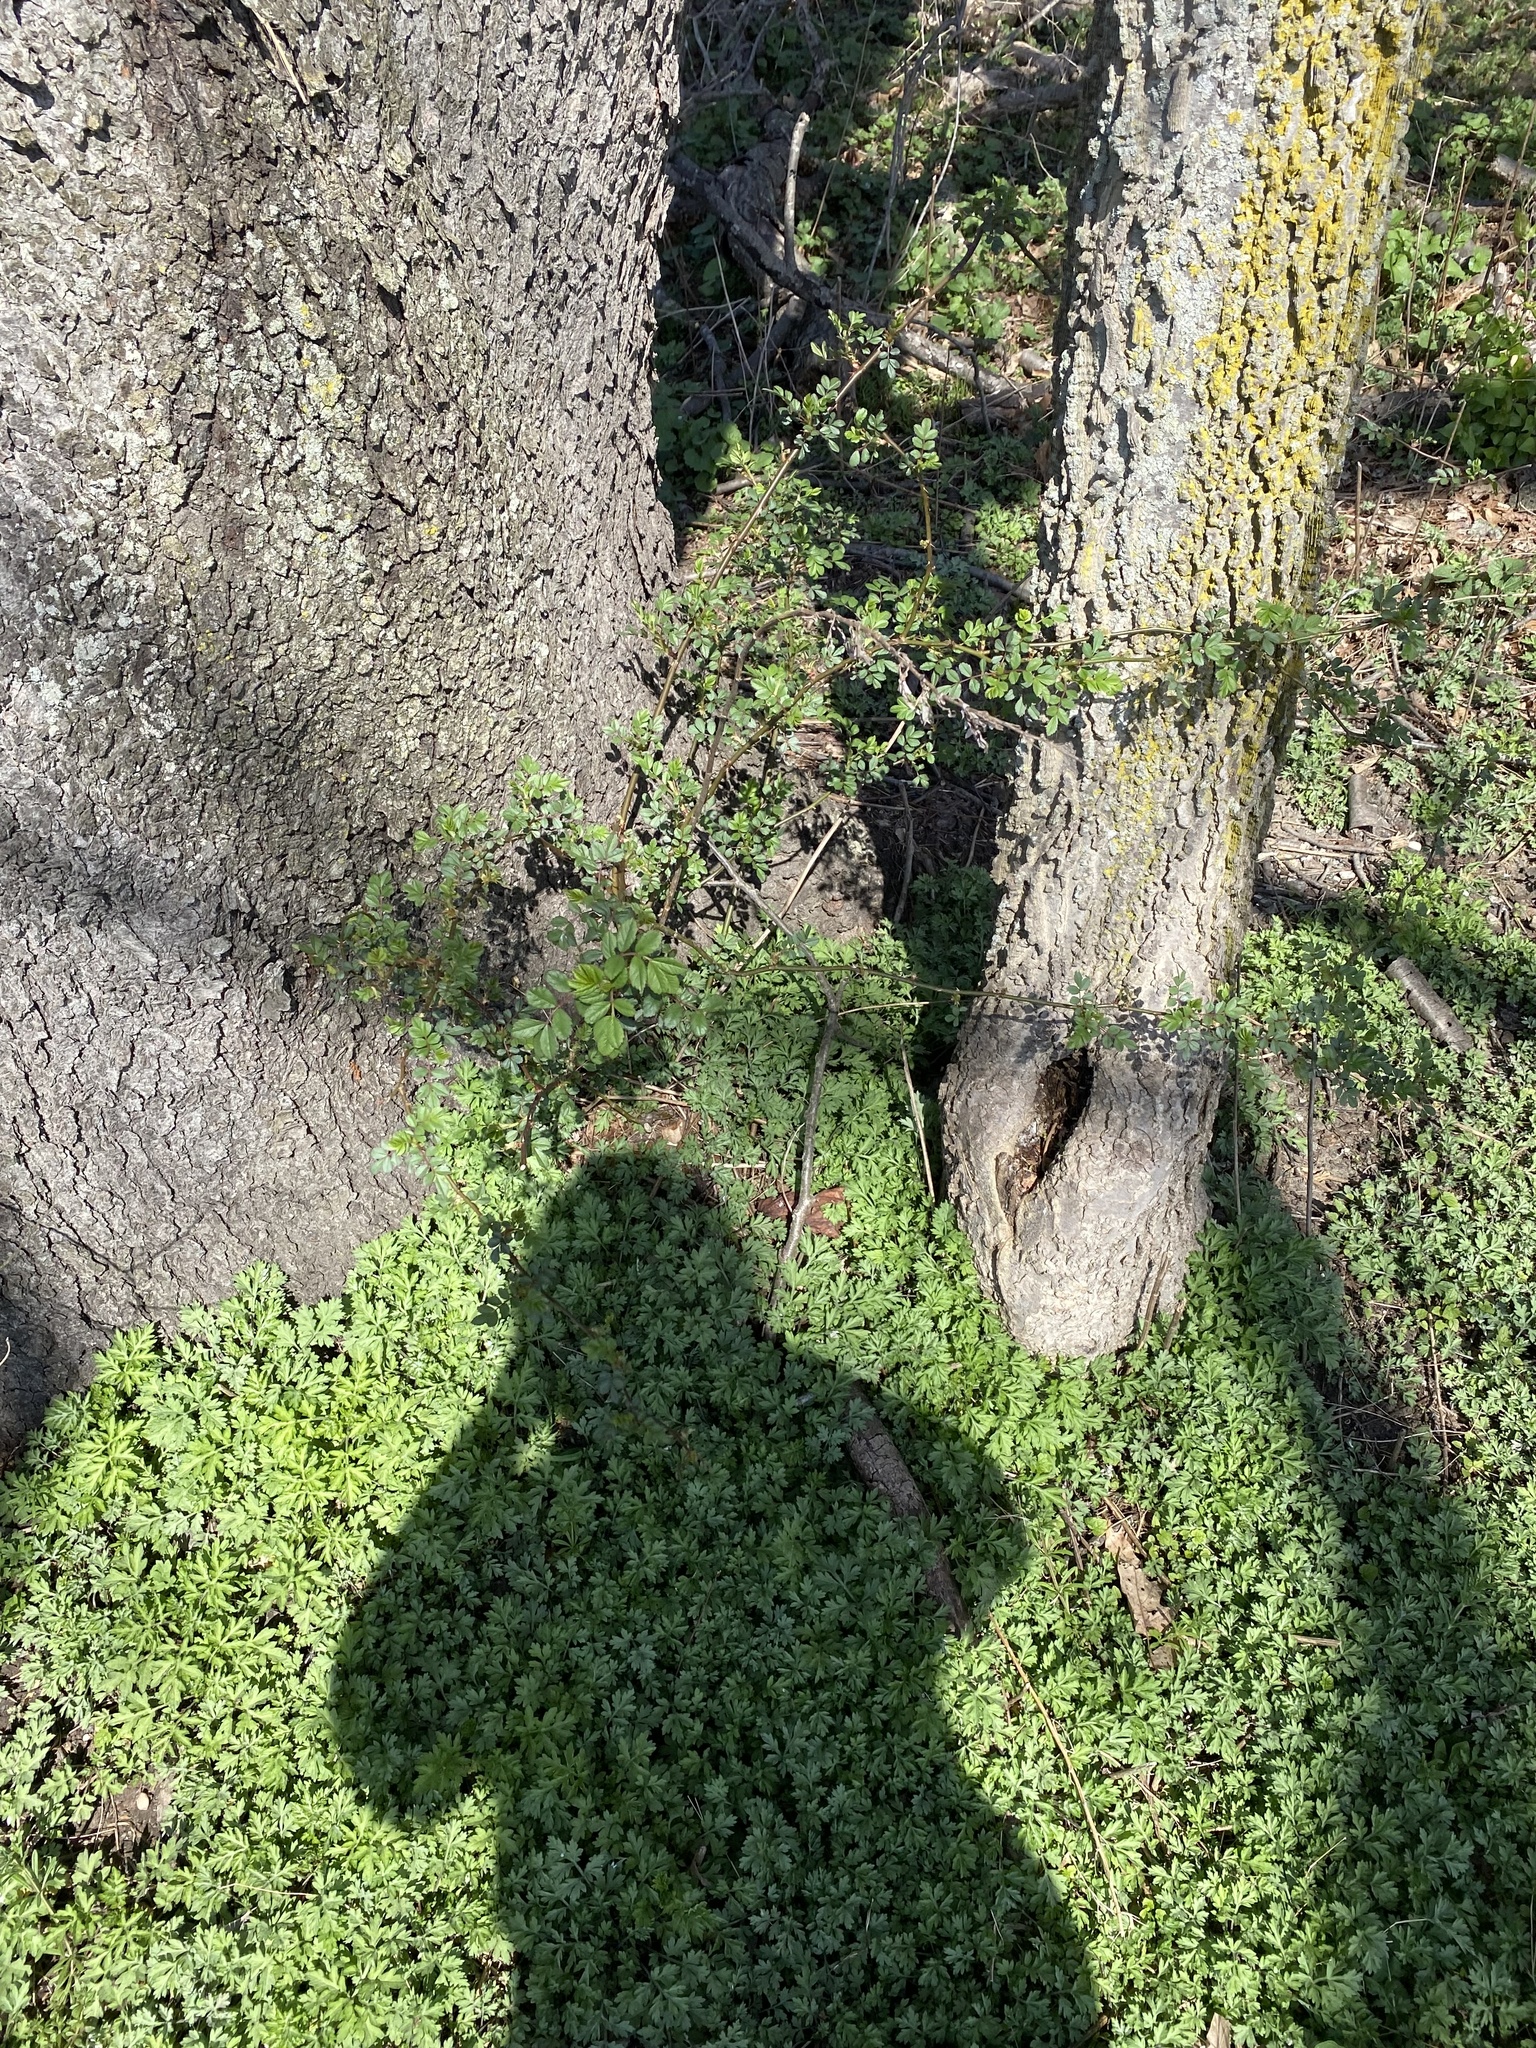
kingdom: Plantae
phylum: Tracheophyta
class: Magnoliopsida
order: Rosales
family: Rosaceae
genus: Rosa
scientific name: Rosa multiflora
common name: Multiflora rose
